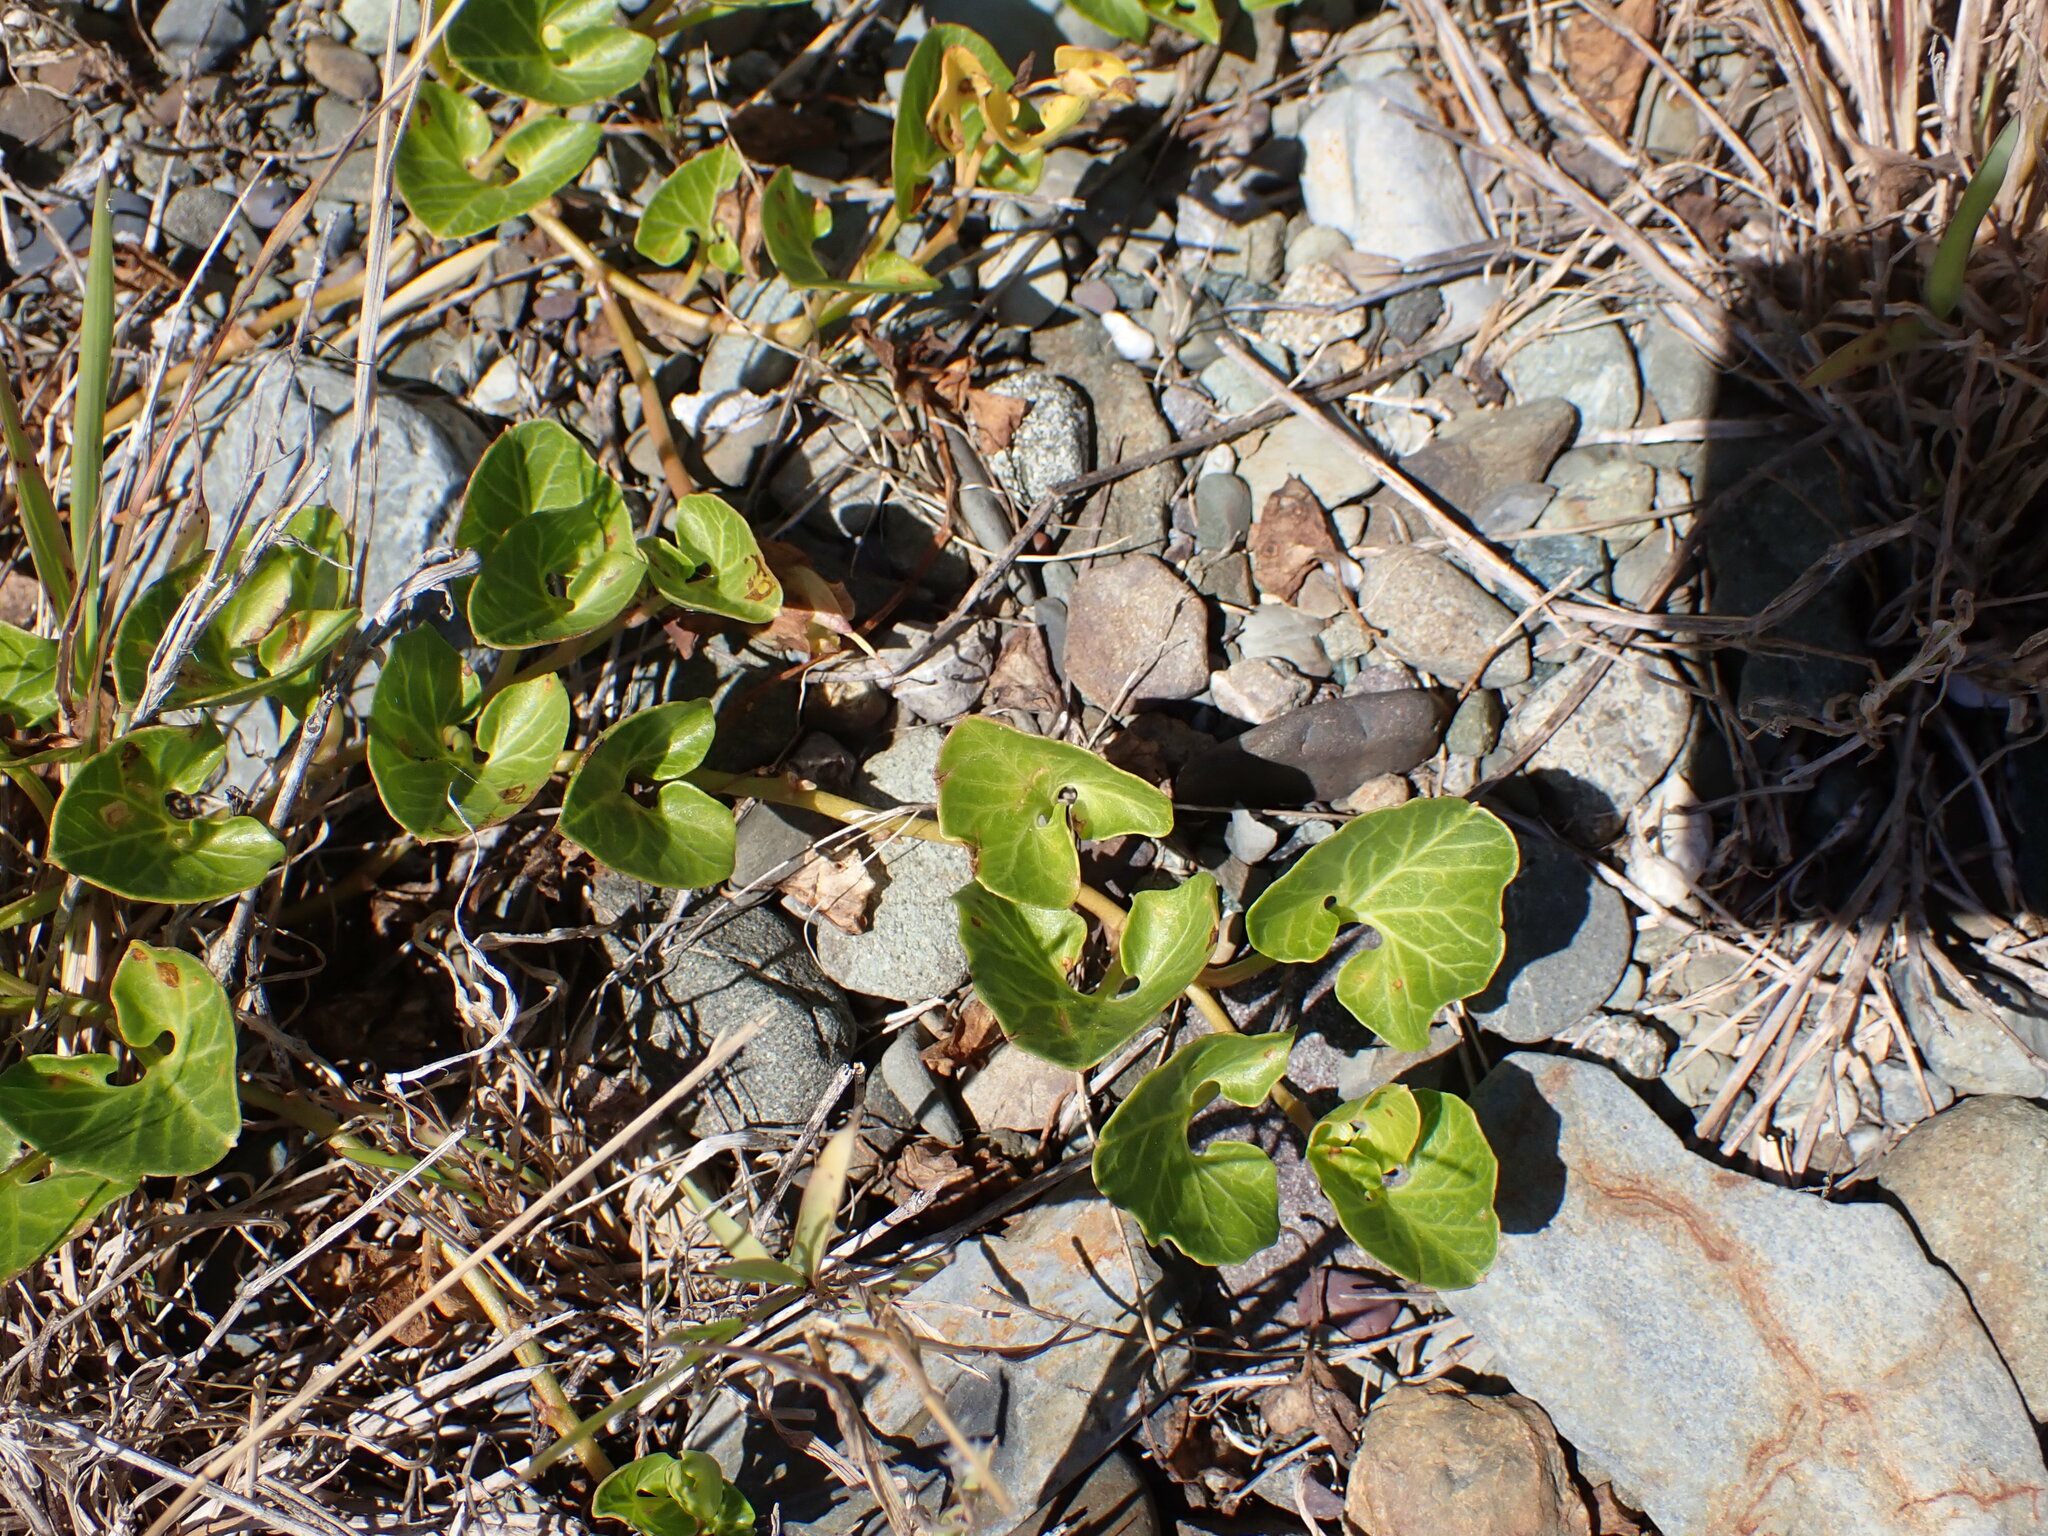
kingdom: Plantae
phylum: Tracheophyta
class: Magnoliopsida
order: Solanales
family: Convolvulaceae
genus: Calystegia
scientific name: Calystegia soldanella
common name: Sea bindweed
